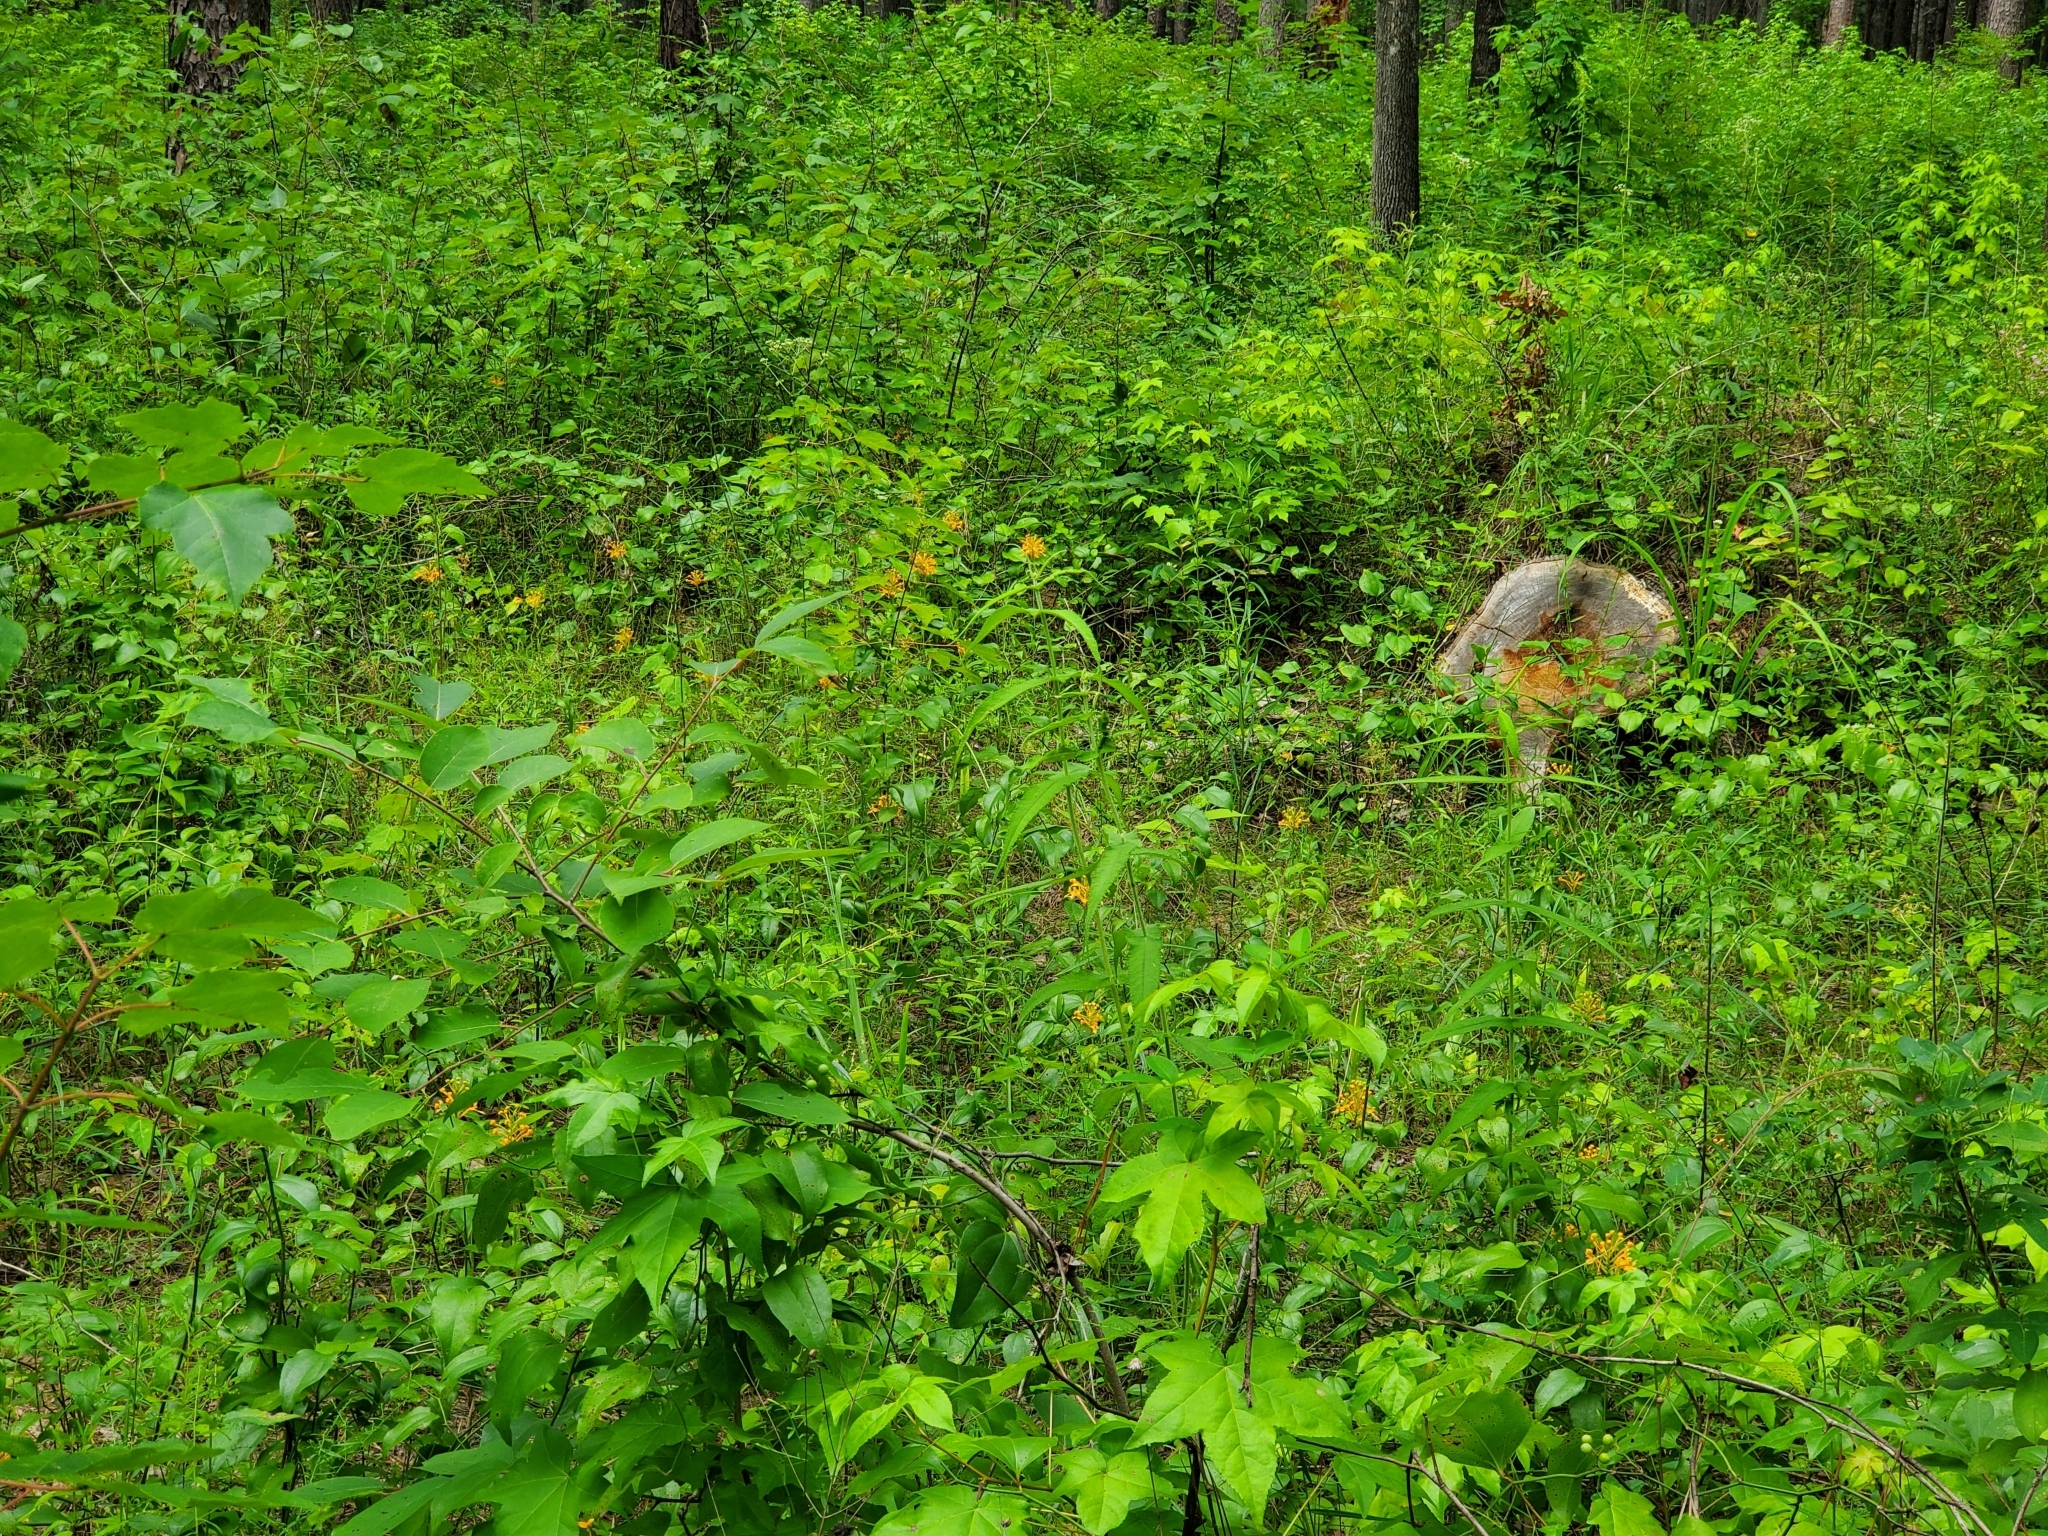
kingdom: Plantae
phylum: Tracheophyta
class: Liliopsida
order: Asparagales
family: Orchidaceae
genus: Platanthera
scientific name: Platanthera ciliaris
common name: Yellow fringed orchid
